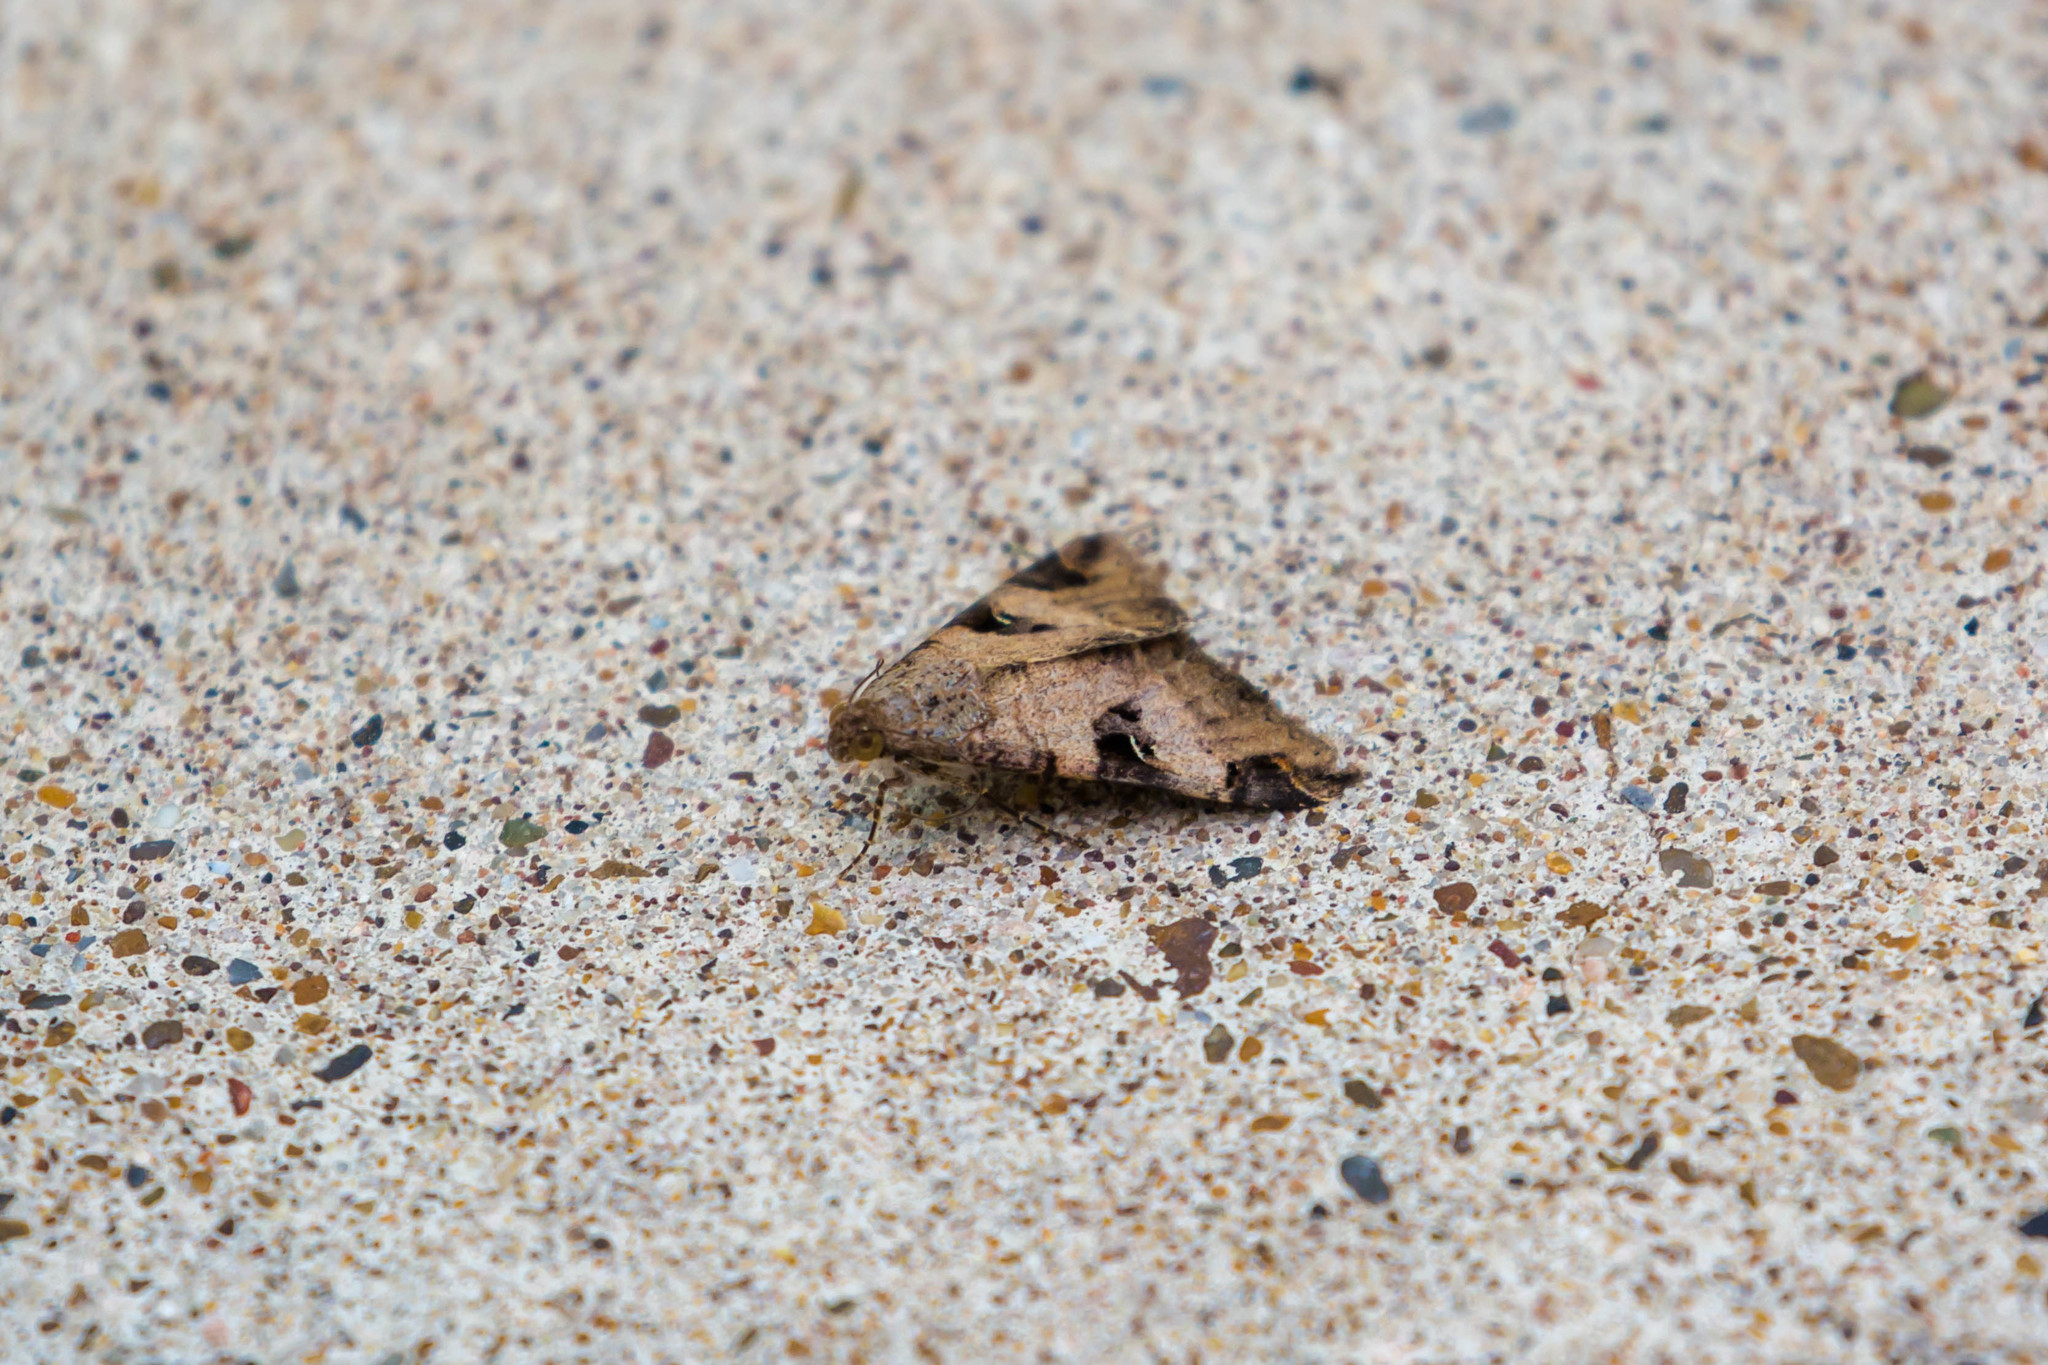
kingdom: Animalia
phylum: Arthropoda
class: Insecta
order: Lepidoptera
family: Erebidae
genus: Melipotis
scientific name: Melipotis perpendicularis
